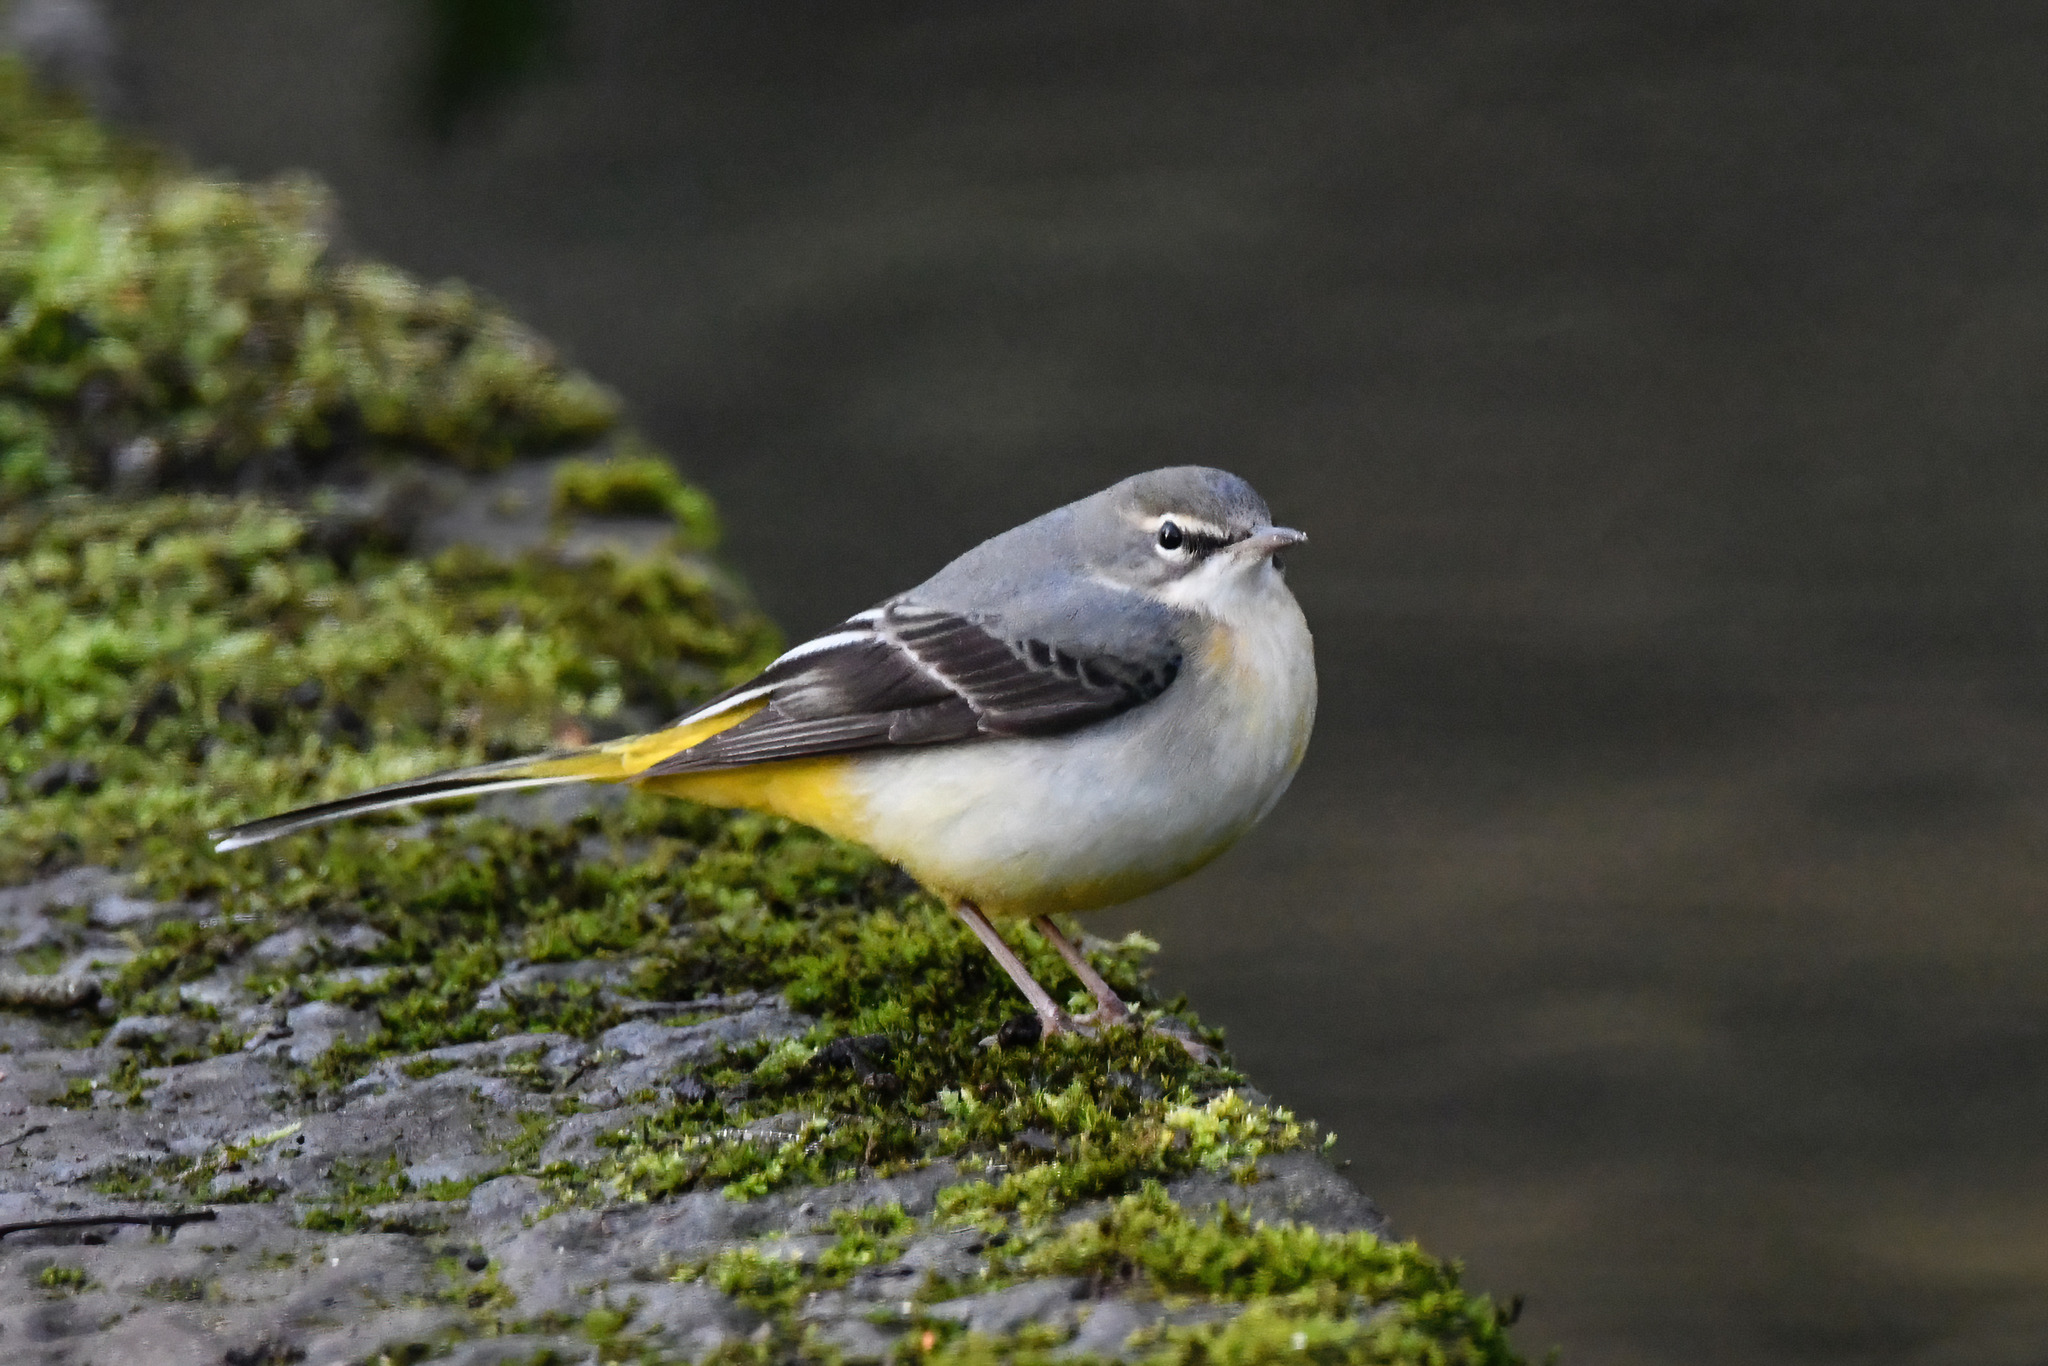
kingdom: Animalia
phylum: Chordata
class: Aves
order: Passeriformes
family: Motacillidae
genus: Motacilla
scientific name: Motacilla cinerea
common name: Grey wagtail
